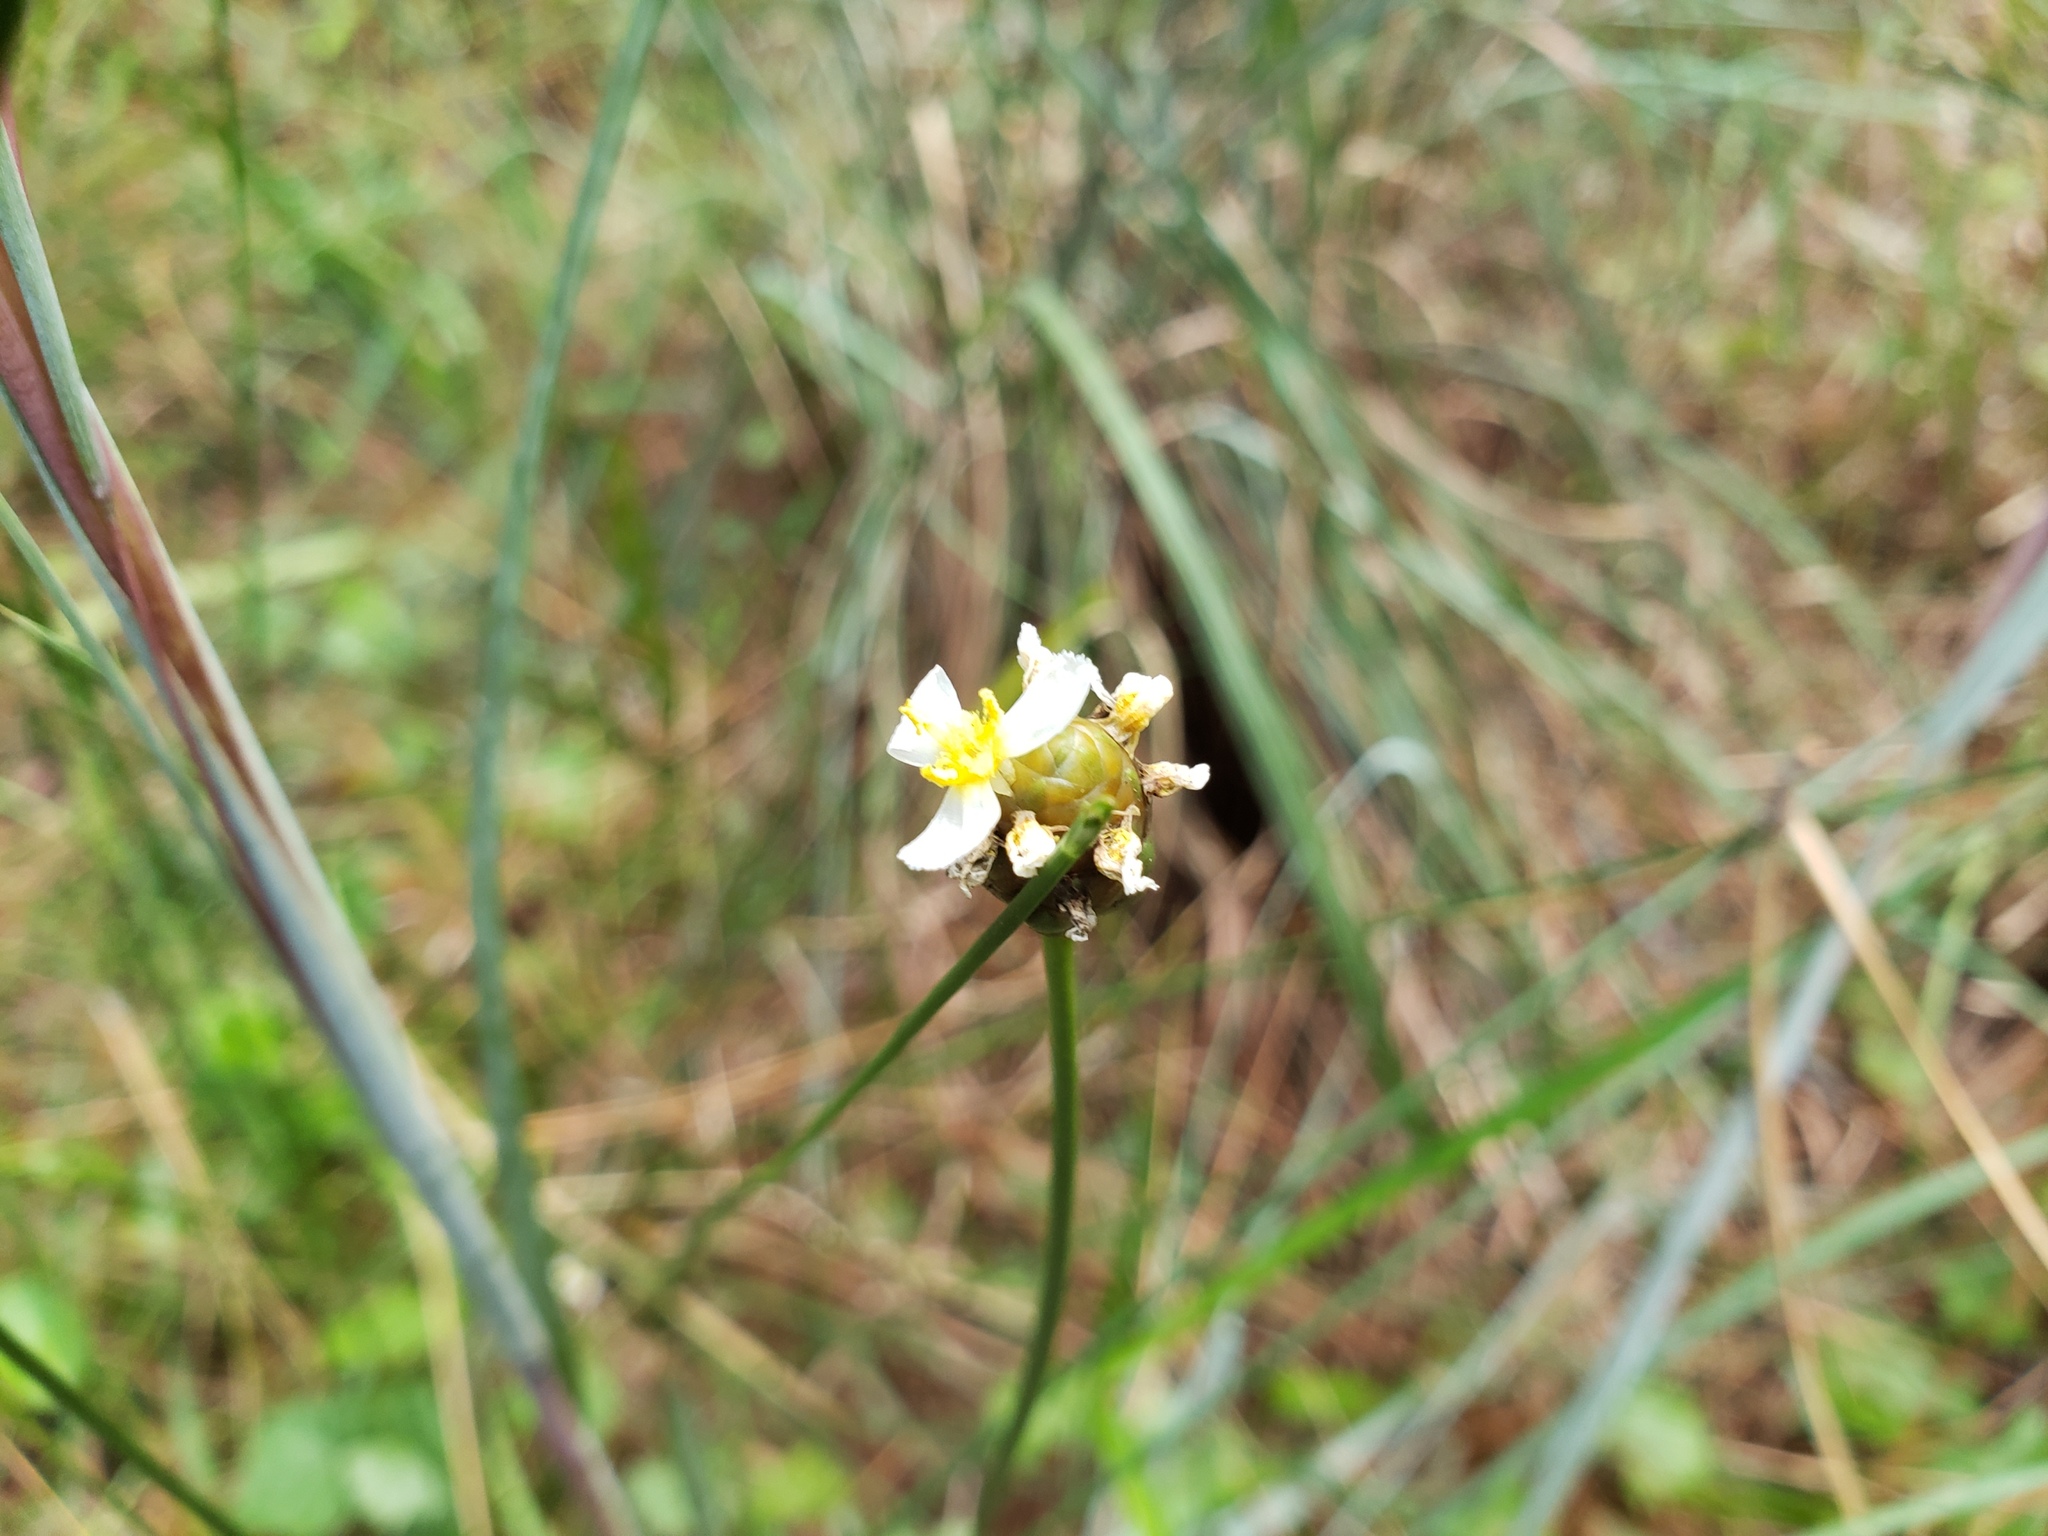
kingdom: Plantae
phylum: Tracheophyta
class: Liliopsida
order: Poales
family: Xyridaceae
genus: Xyris
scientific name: Xyris platylepis
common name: Tall yelloweyed grass
